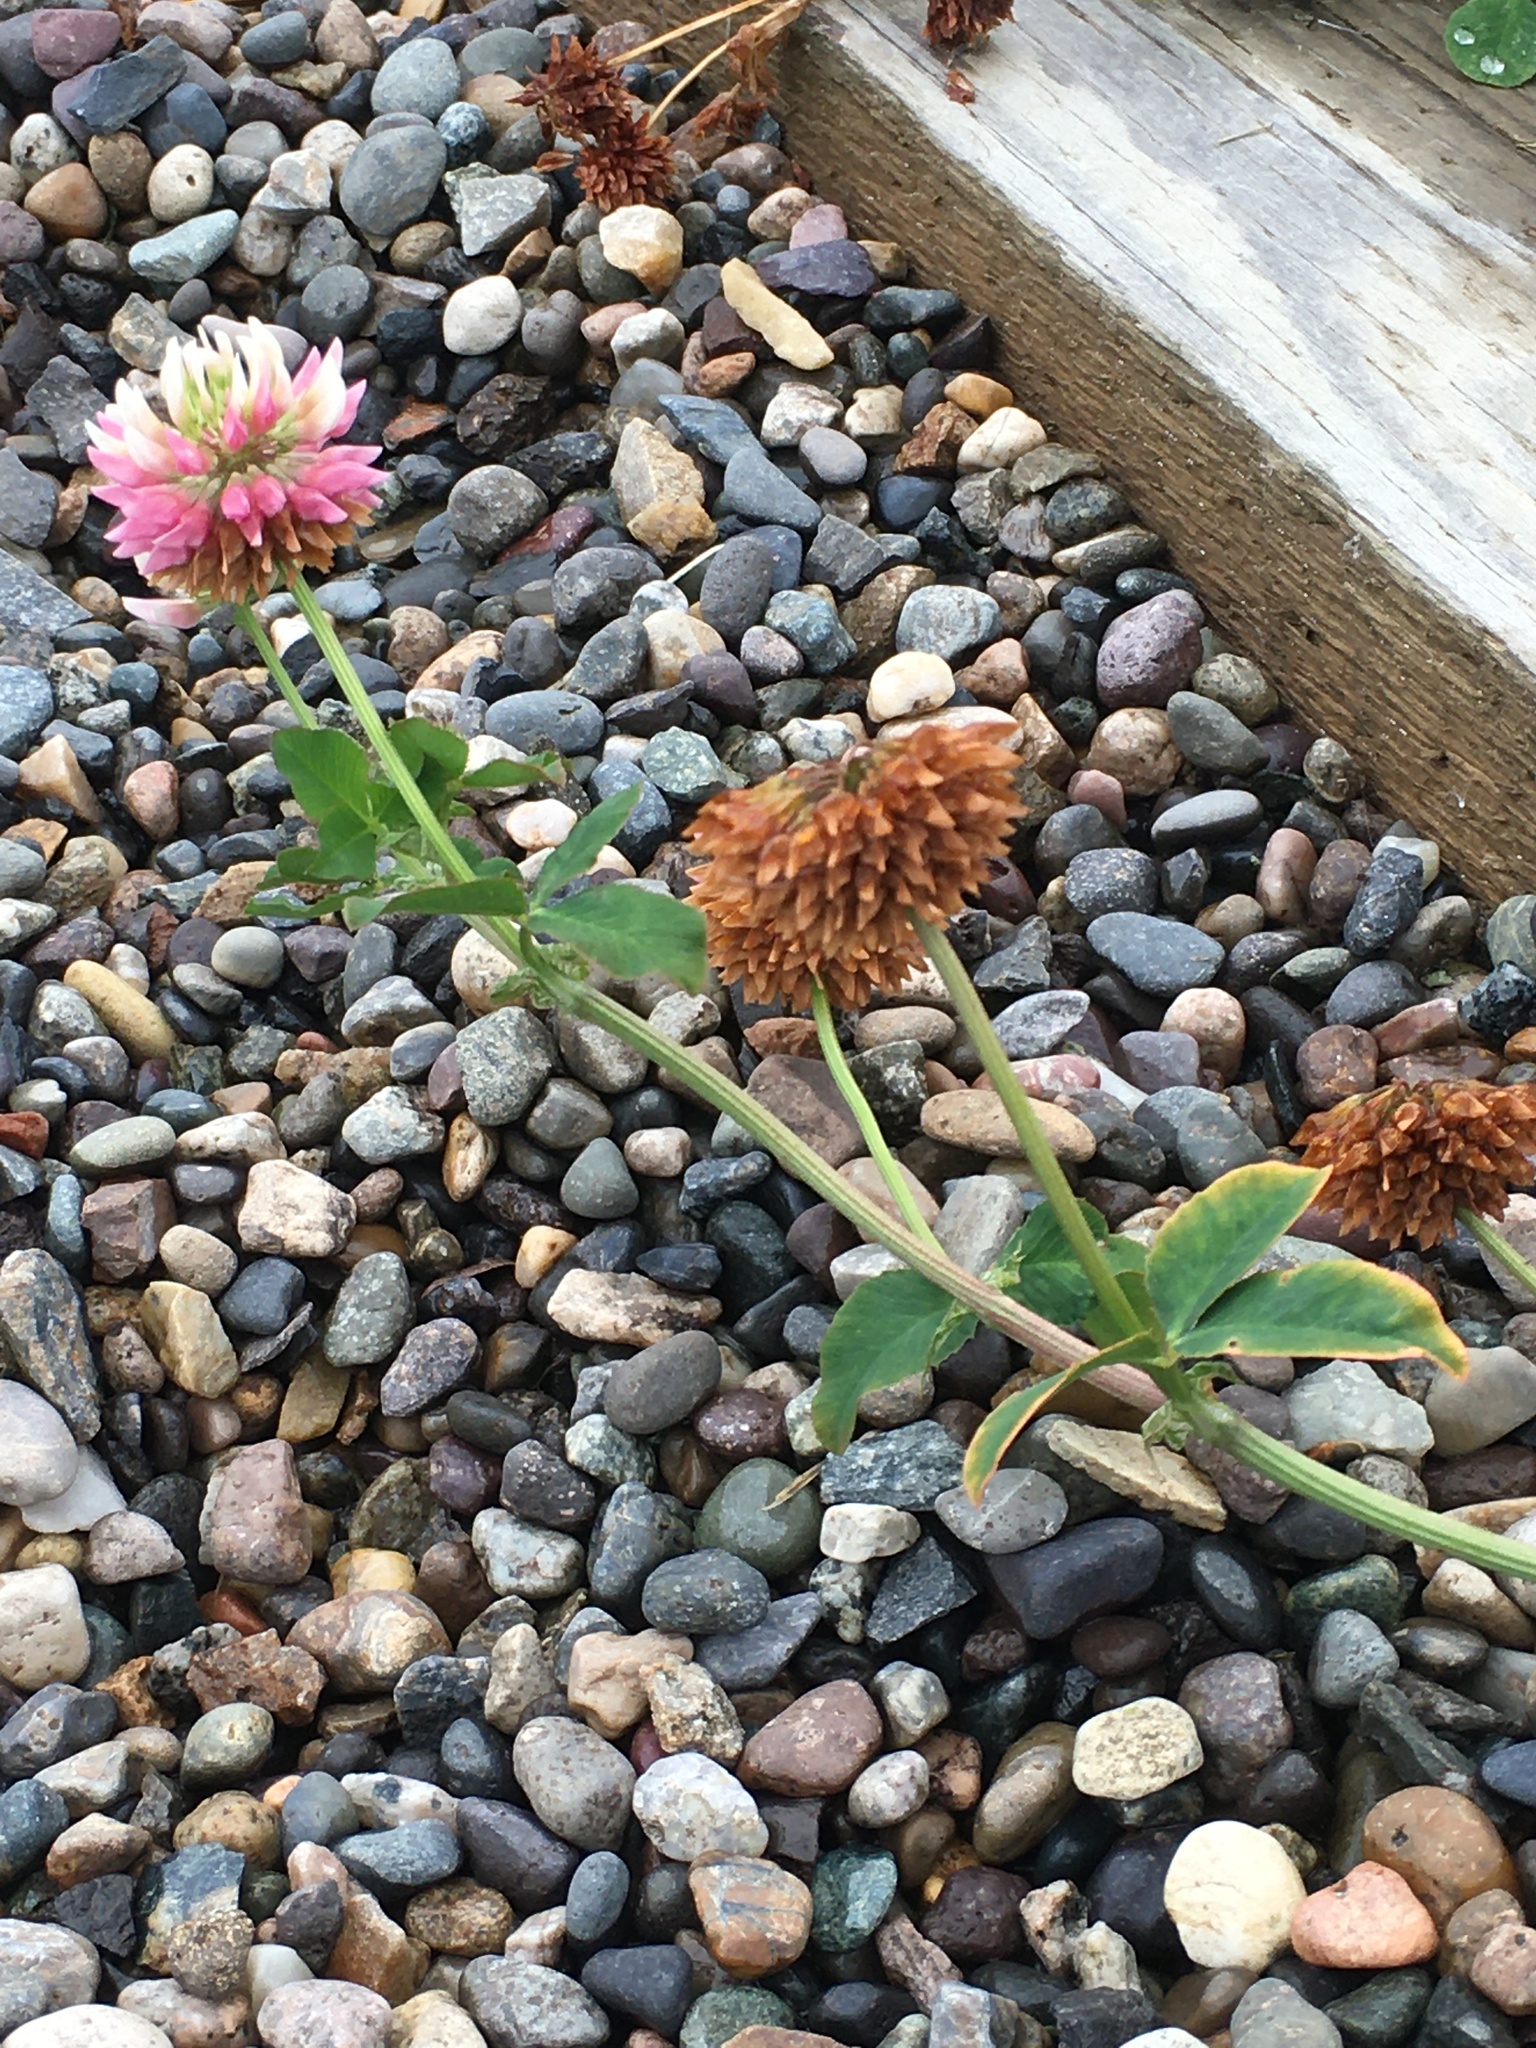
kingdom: Plantae
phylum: Tracheophyta
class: Magnoliopsida
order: Fabales
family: Fabaceae
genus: Trifolium
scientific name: Trifolium hybridum
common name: Alsike clover
